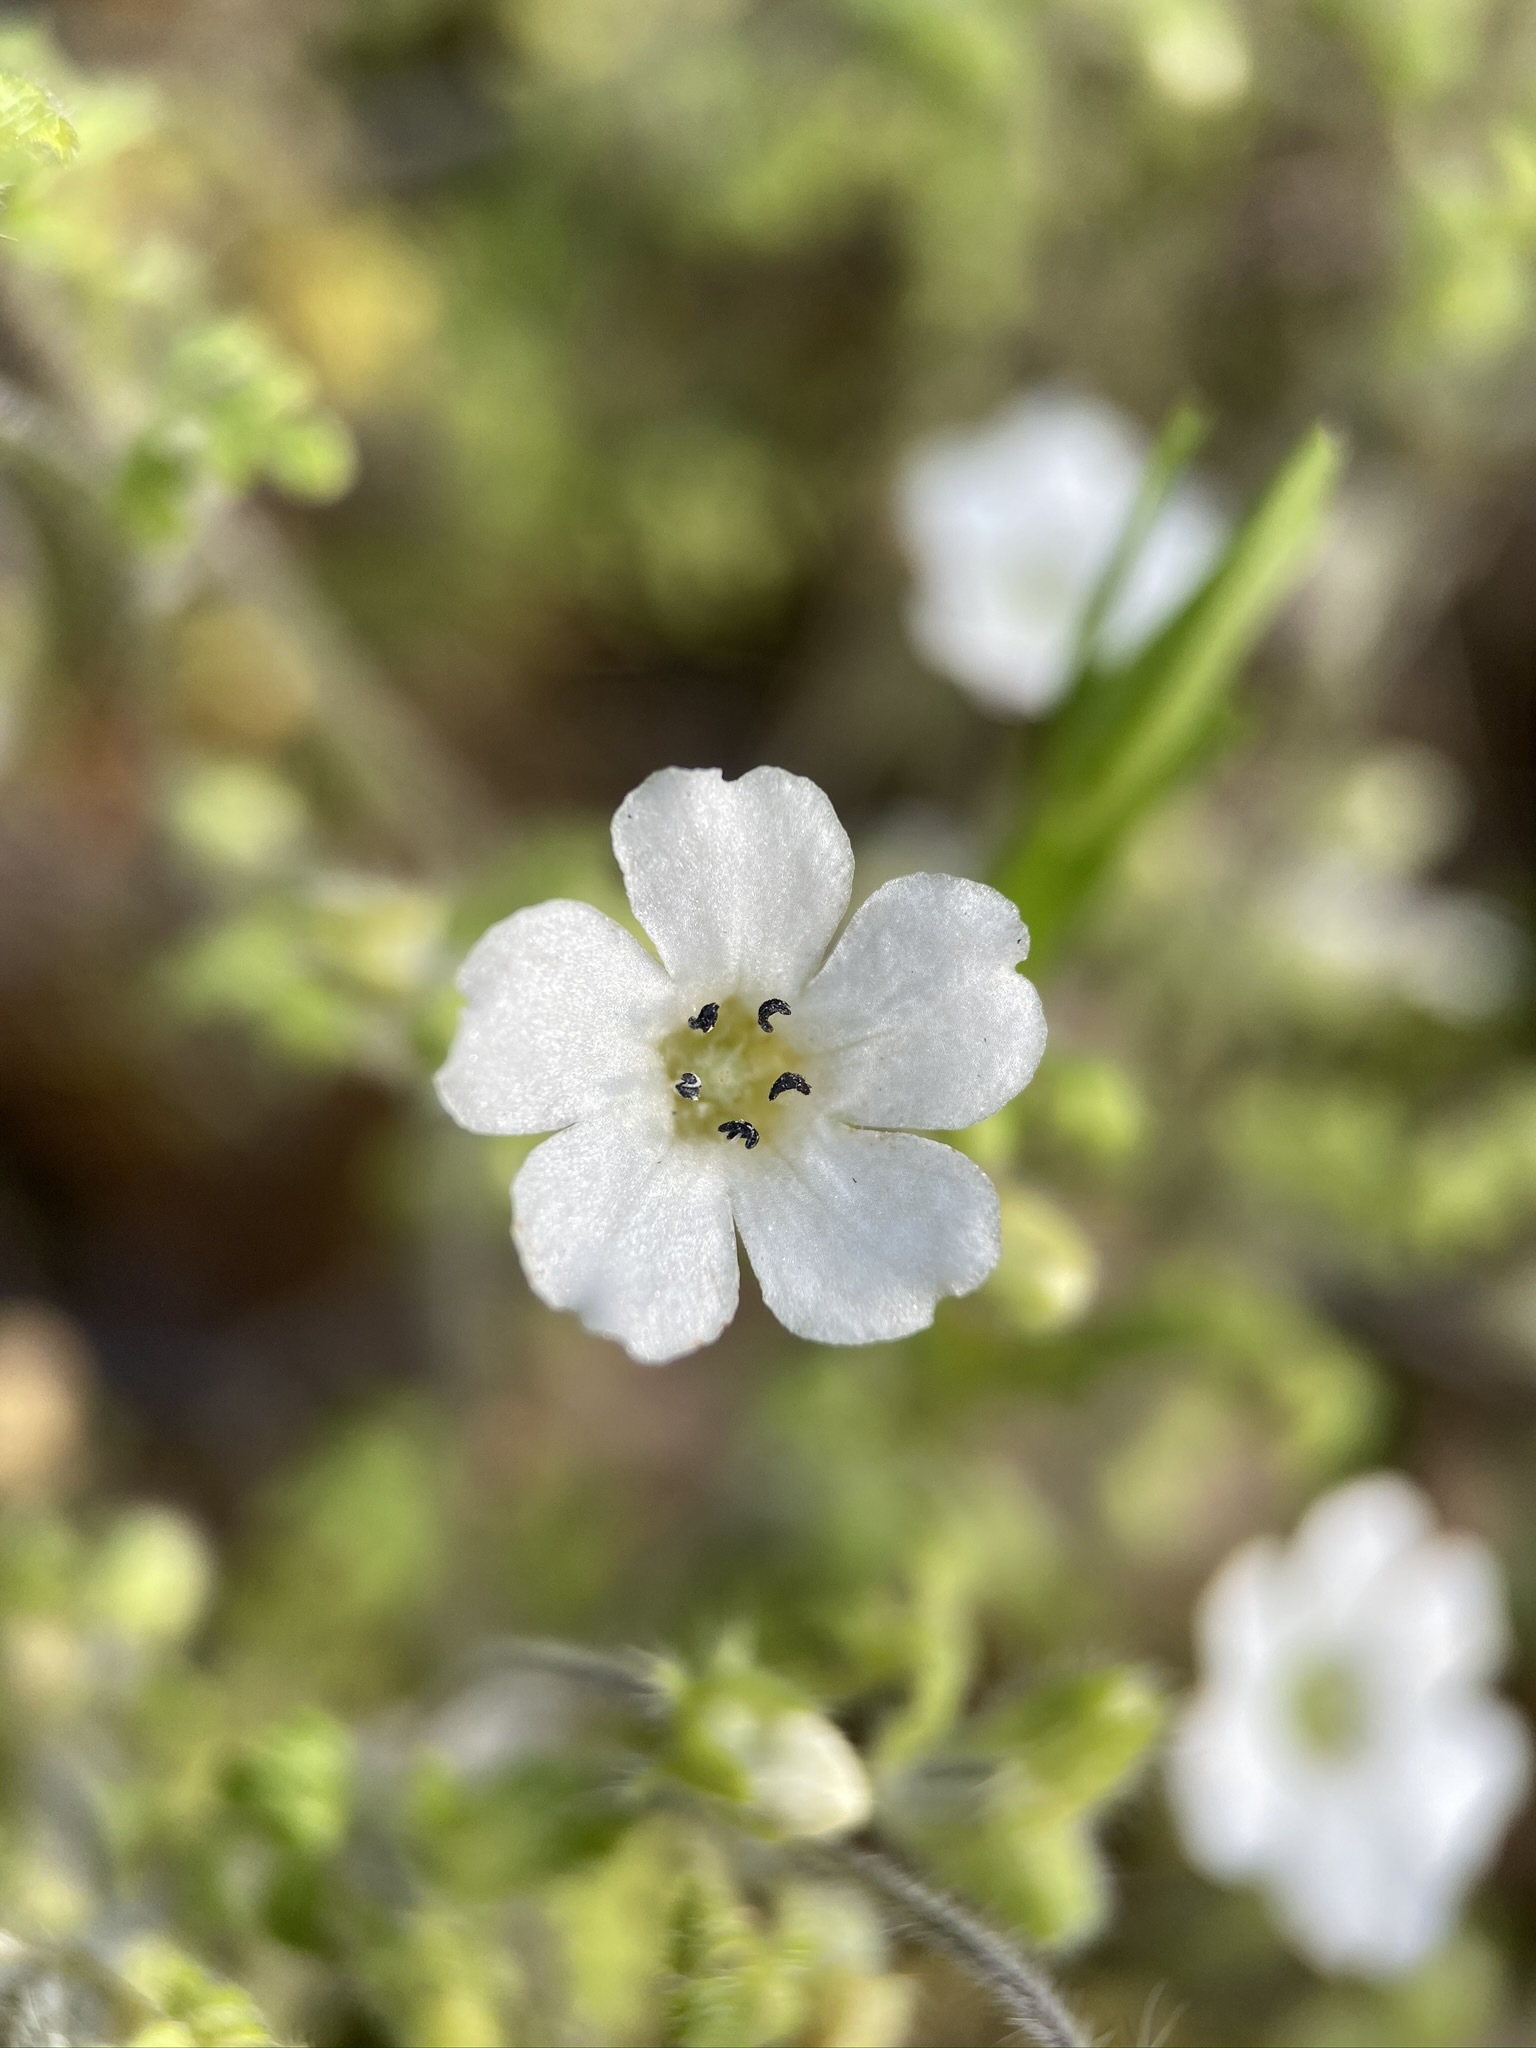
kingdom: Plantae
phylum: Tracheophyta
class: Magnoliopsida
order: Boraginales
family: Hydrophyllaceae
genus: Nemophila
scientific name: Nemophila heterophylla
